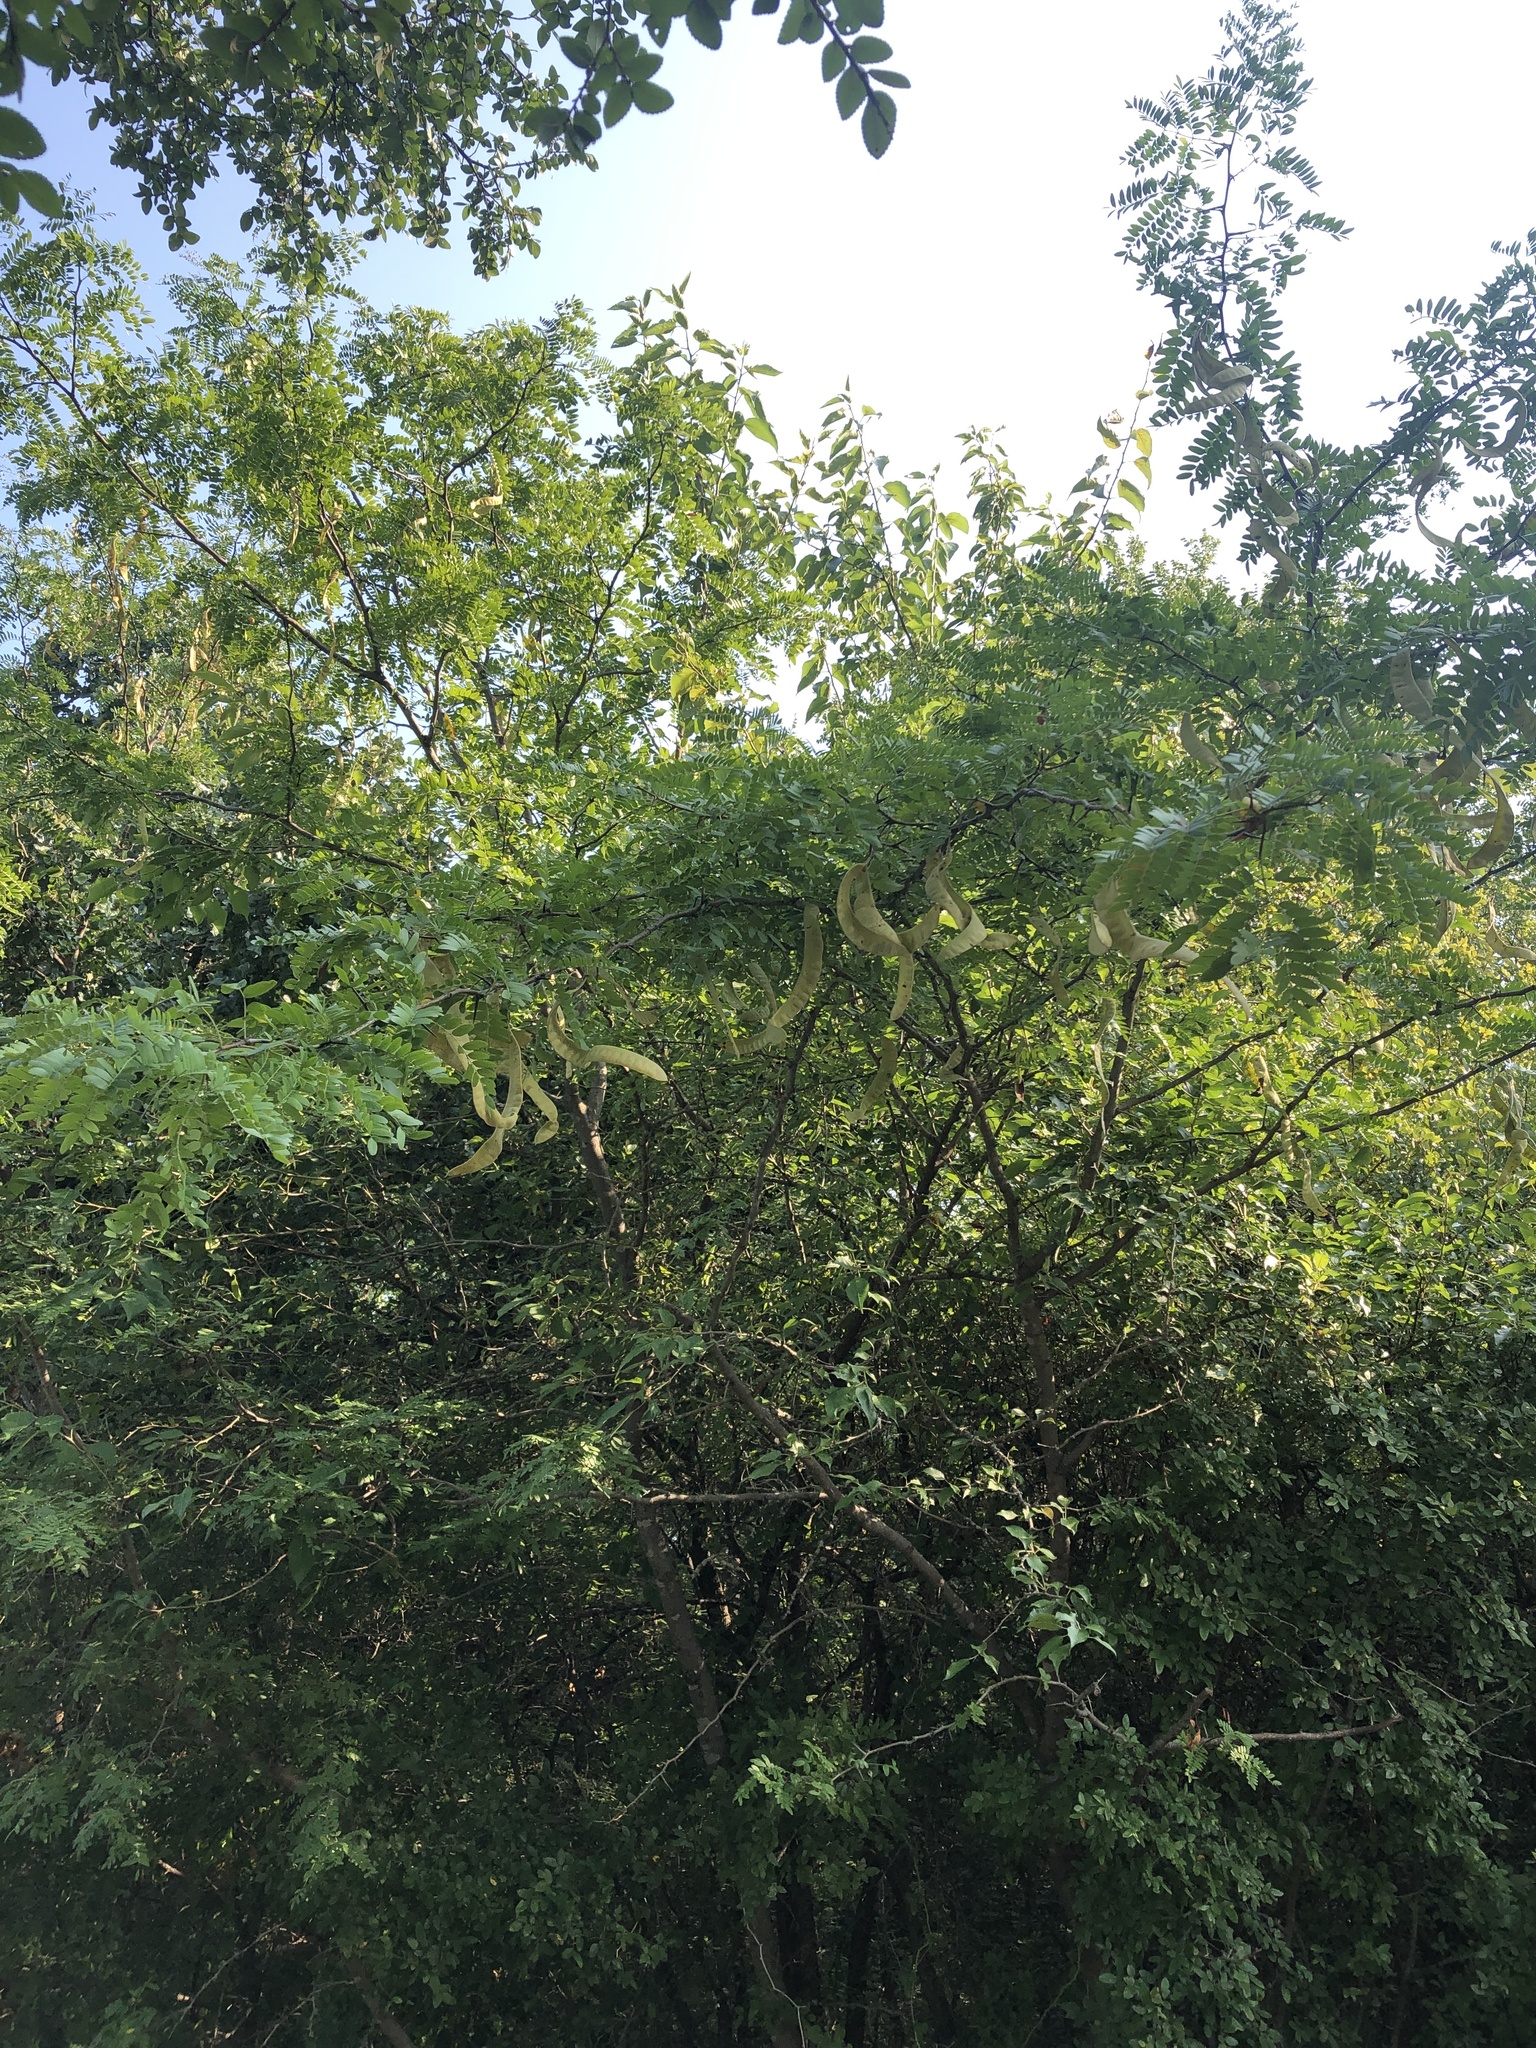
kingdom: Plantae
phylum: Tracheophyta
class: Magnoliopsida
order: Fabales
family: Fabaceae
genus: Gleditsia
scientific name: Gleditsia triacanthos
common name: Common honeylocust
